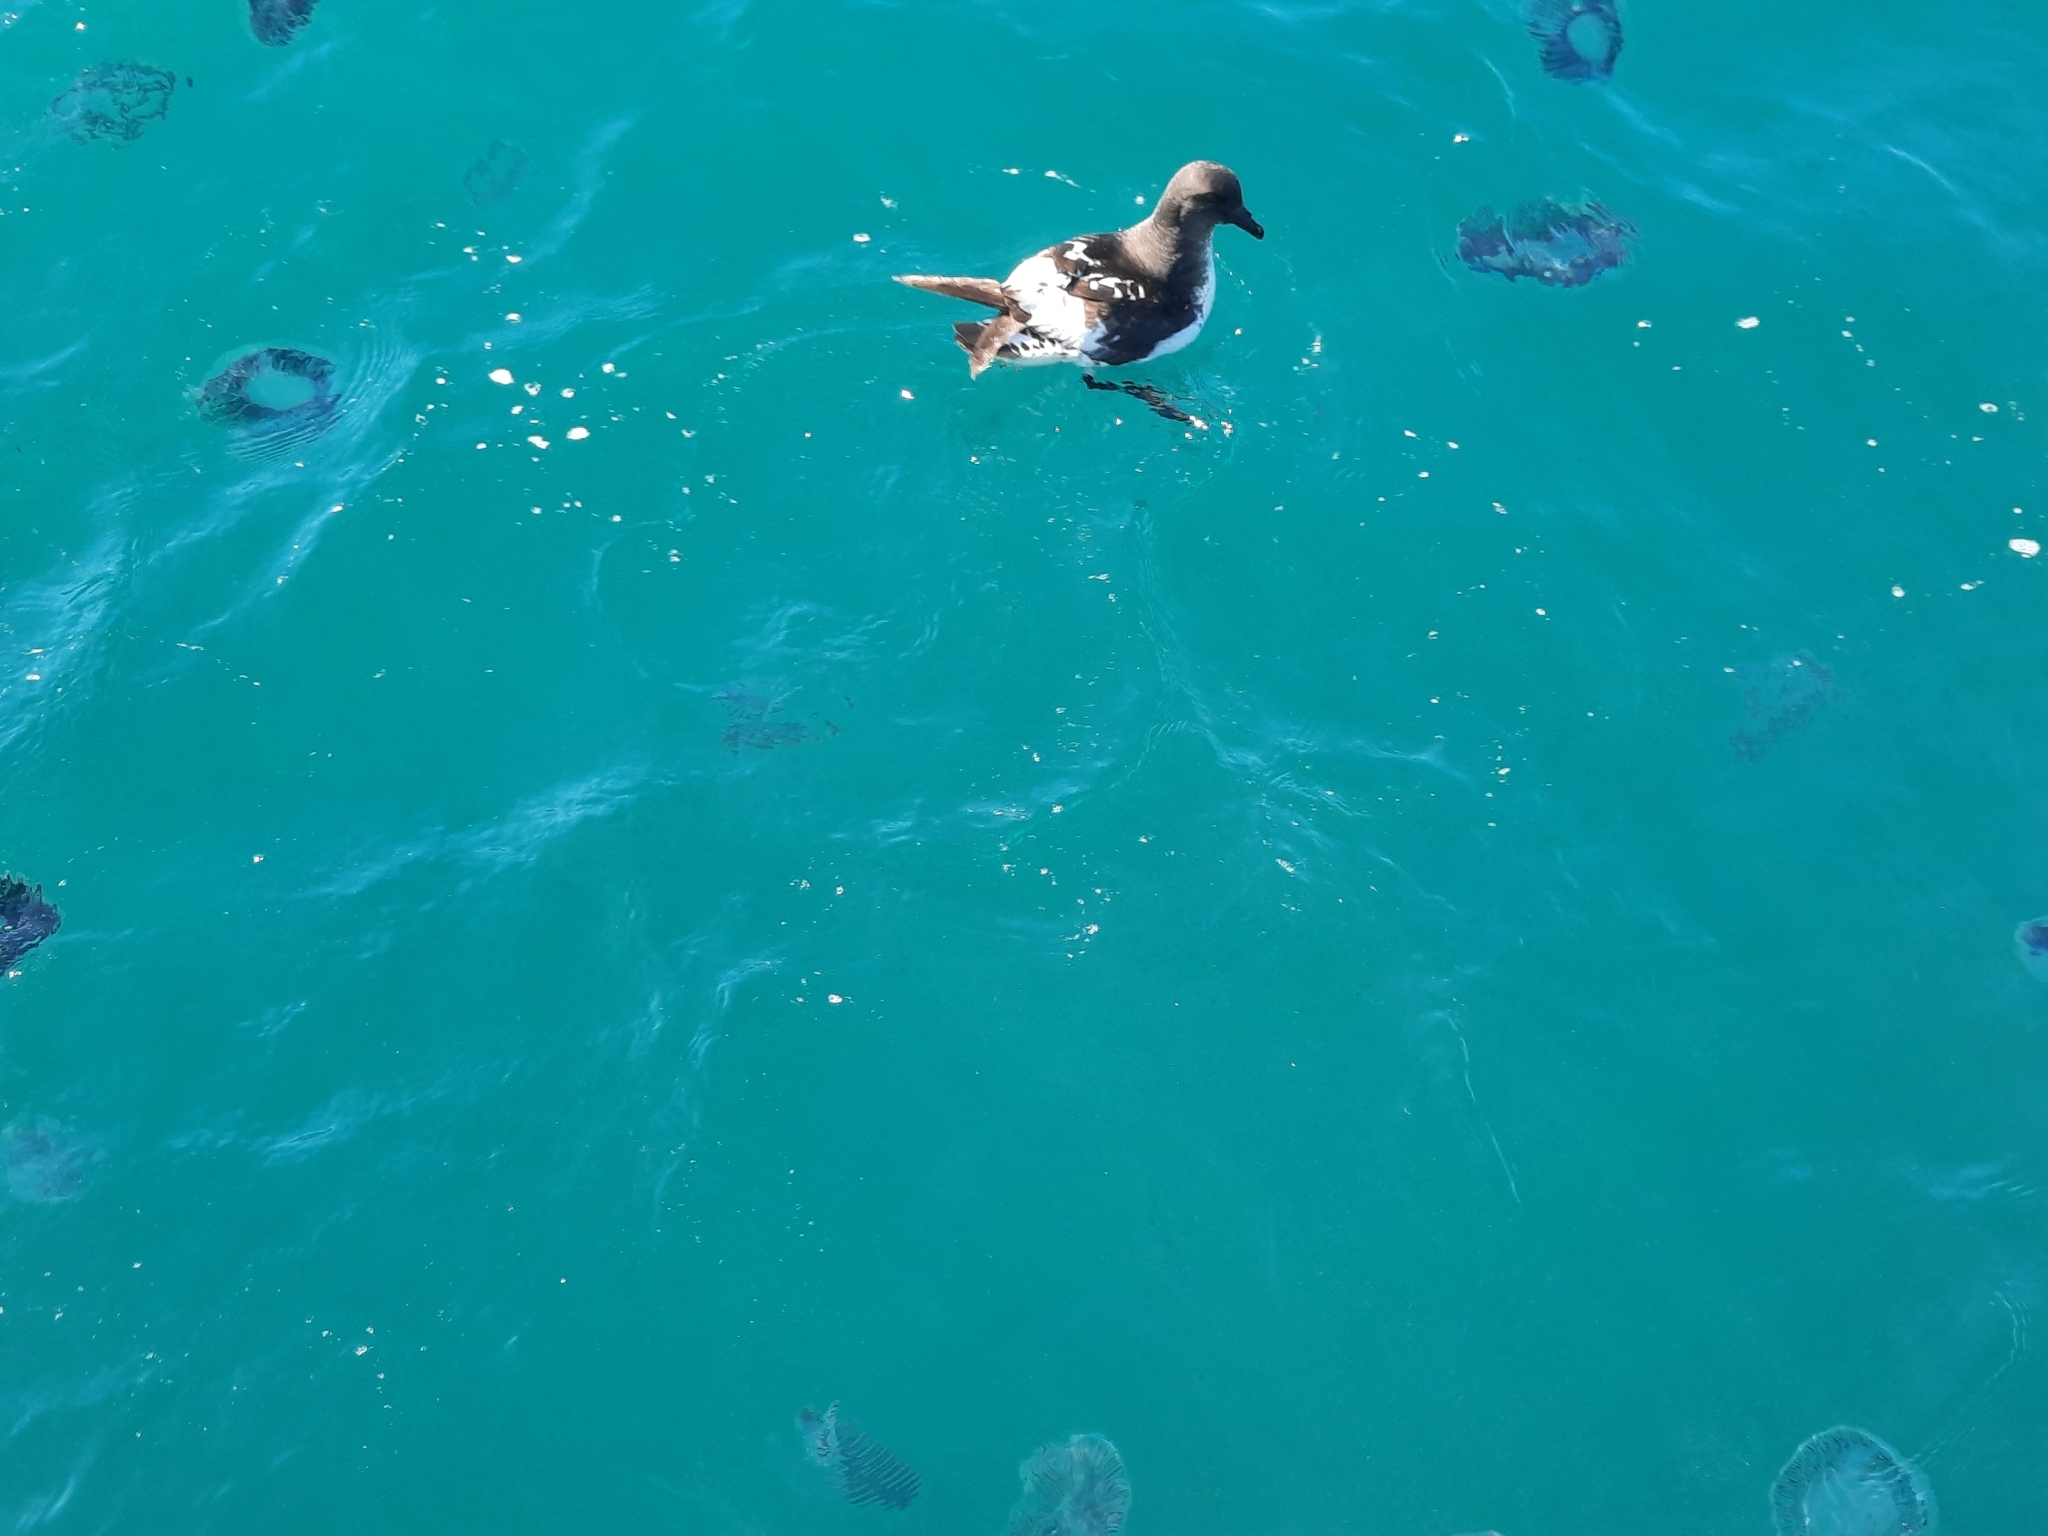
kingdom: Animalia
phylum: Chordata
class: Aves
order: Procellariiformes
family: Procellariidae
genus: Daption
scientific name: Daption capense
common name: Cape petrel
